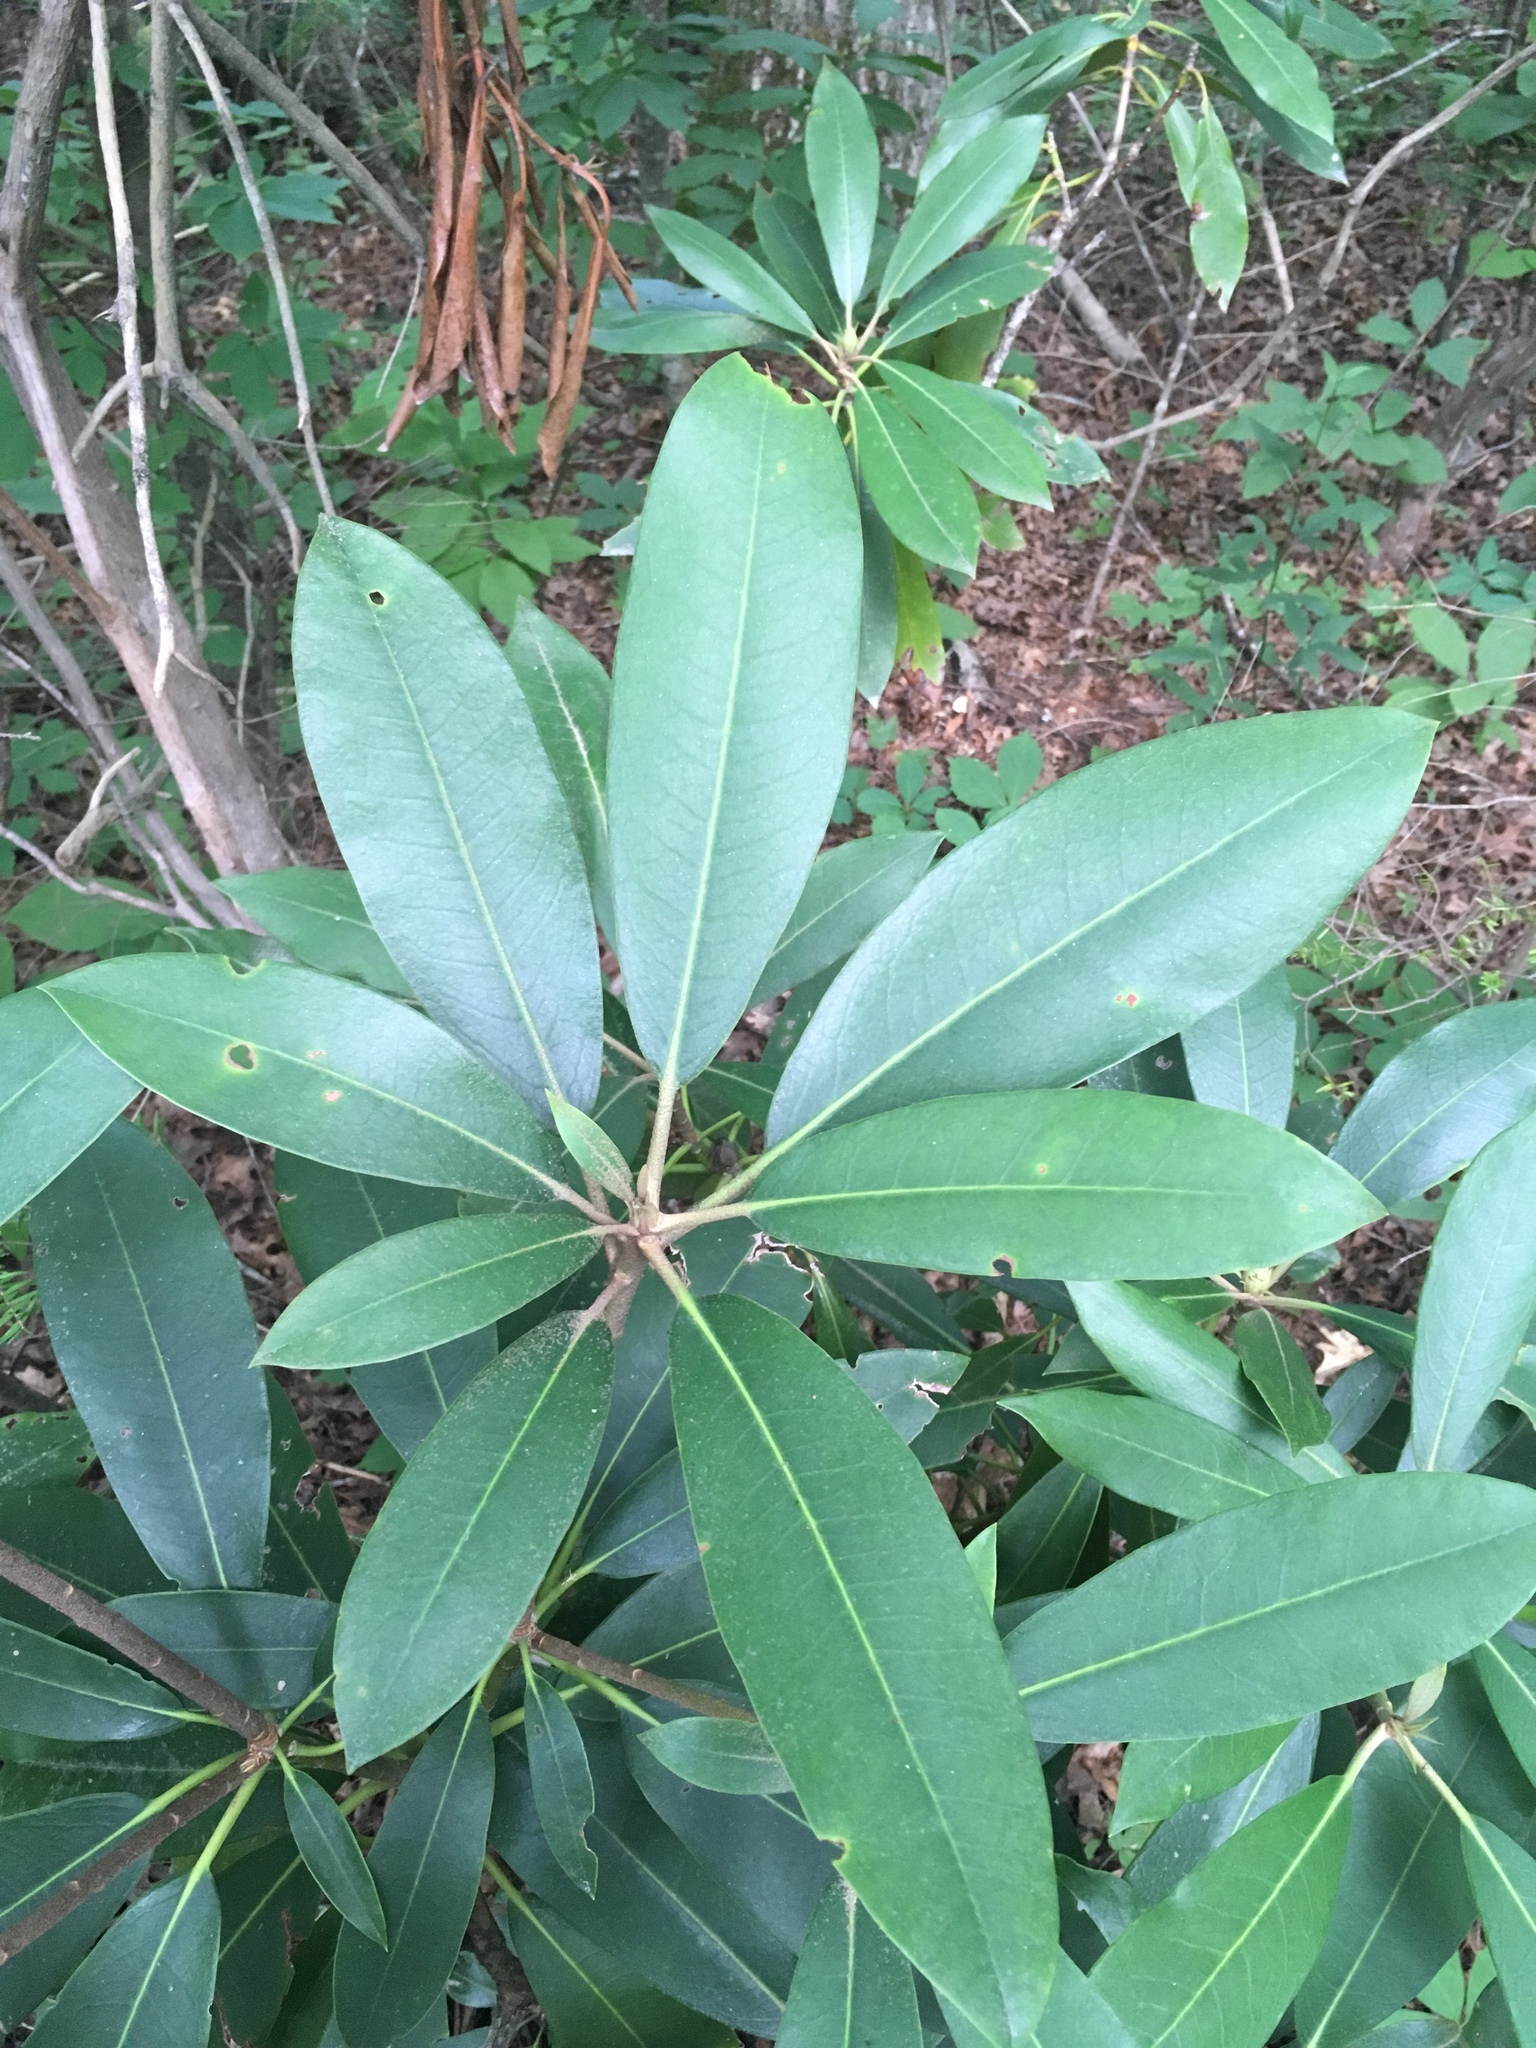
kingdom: Plantae
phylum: Tracheophyta
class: Magnoliopsida
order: Ericales
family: Ericaceae
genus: Rhododendron
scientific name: Rhododendron maximum
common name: Great rhododendron
